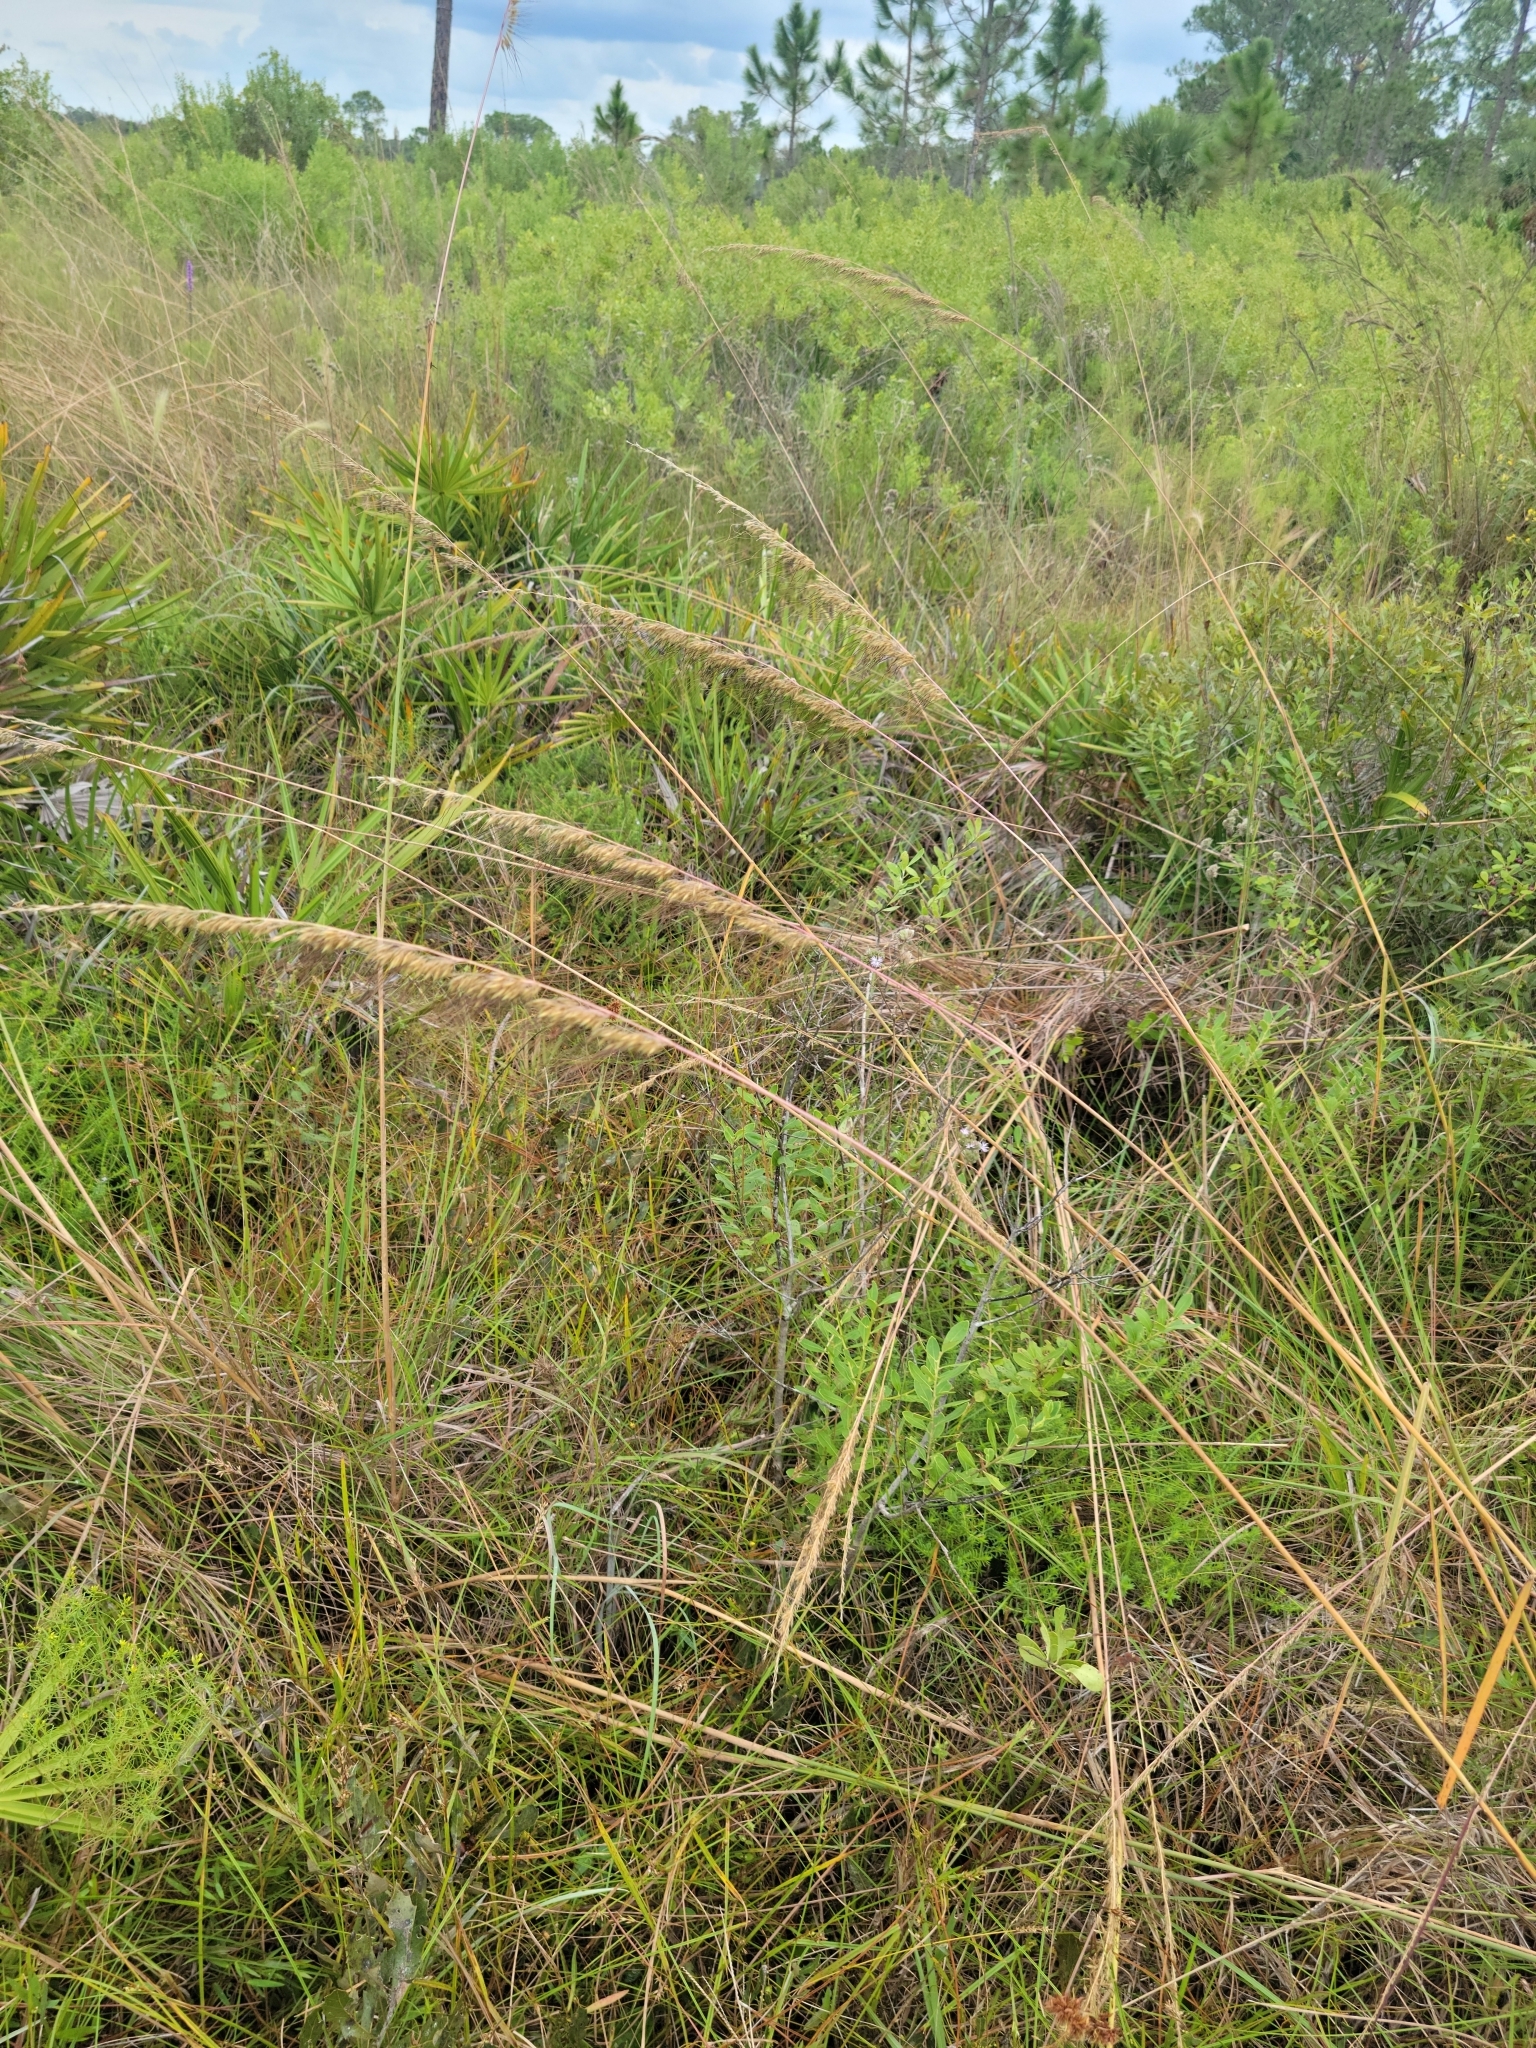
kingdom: Plantae
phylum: Tracheophyta
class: Liliopsida
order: Poales
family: Poaceae
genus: Sorghastrum
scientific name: Sorghastrum secundum
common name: Lopsided indian grass
